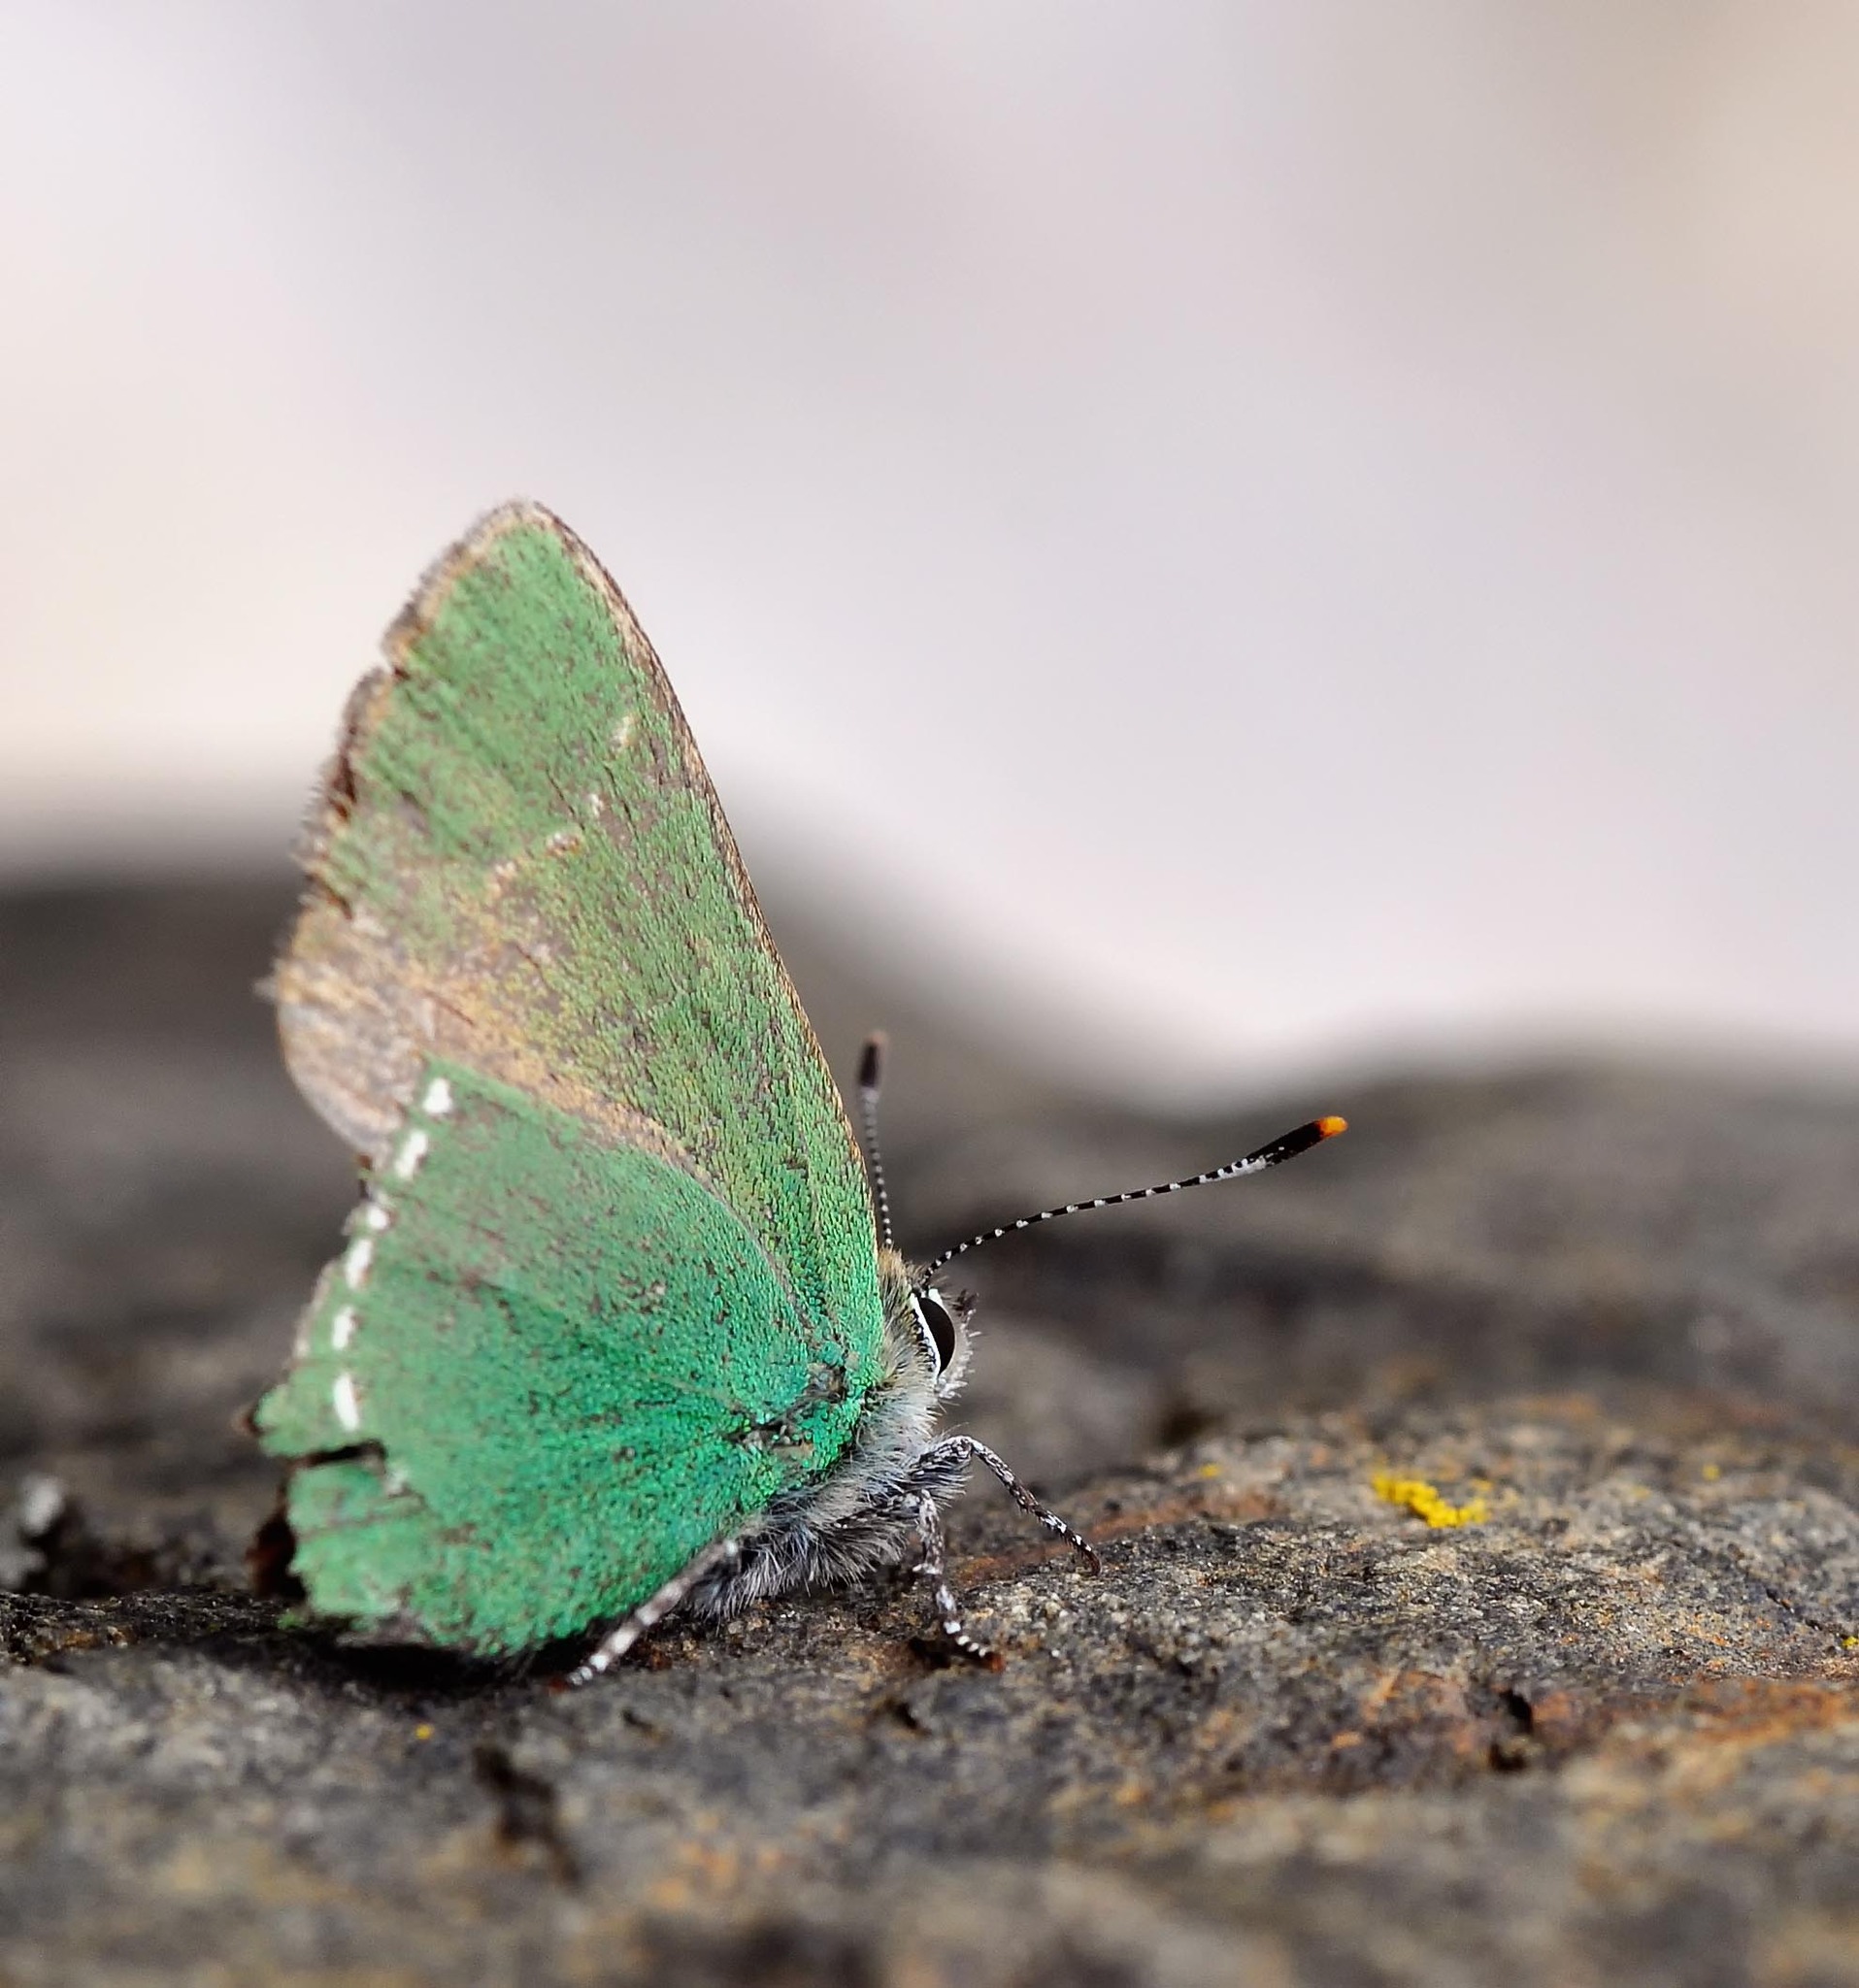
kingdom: Animalia
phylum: Arthropoda
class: Insecta
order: Lepidoptera
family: Lycaenidae
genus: Callophrys
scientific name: Callophrys rubi
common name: Green hairstreak
